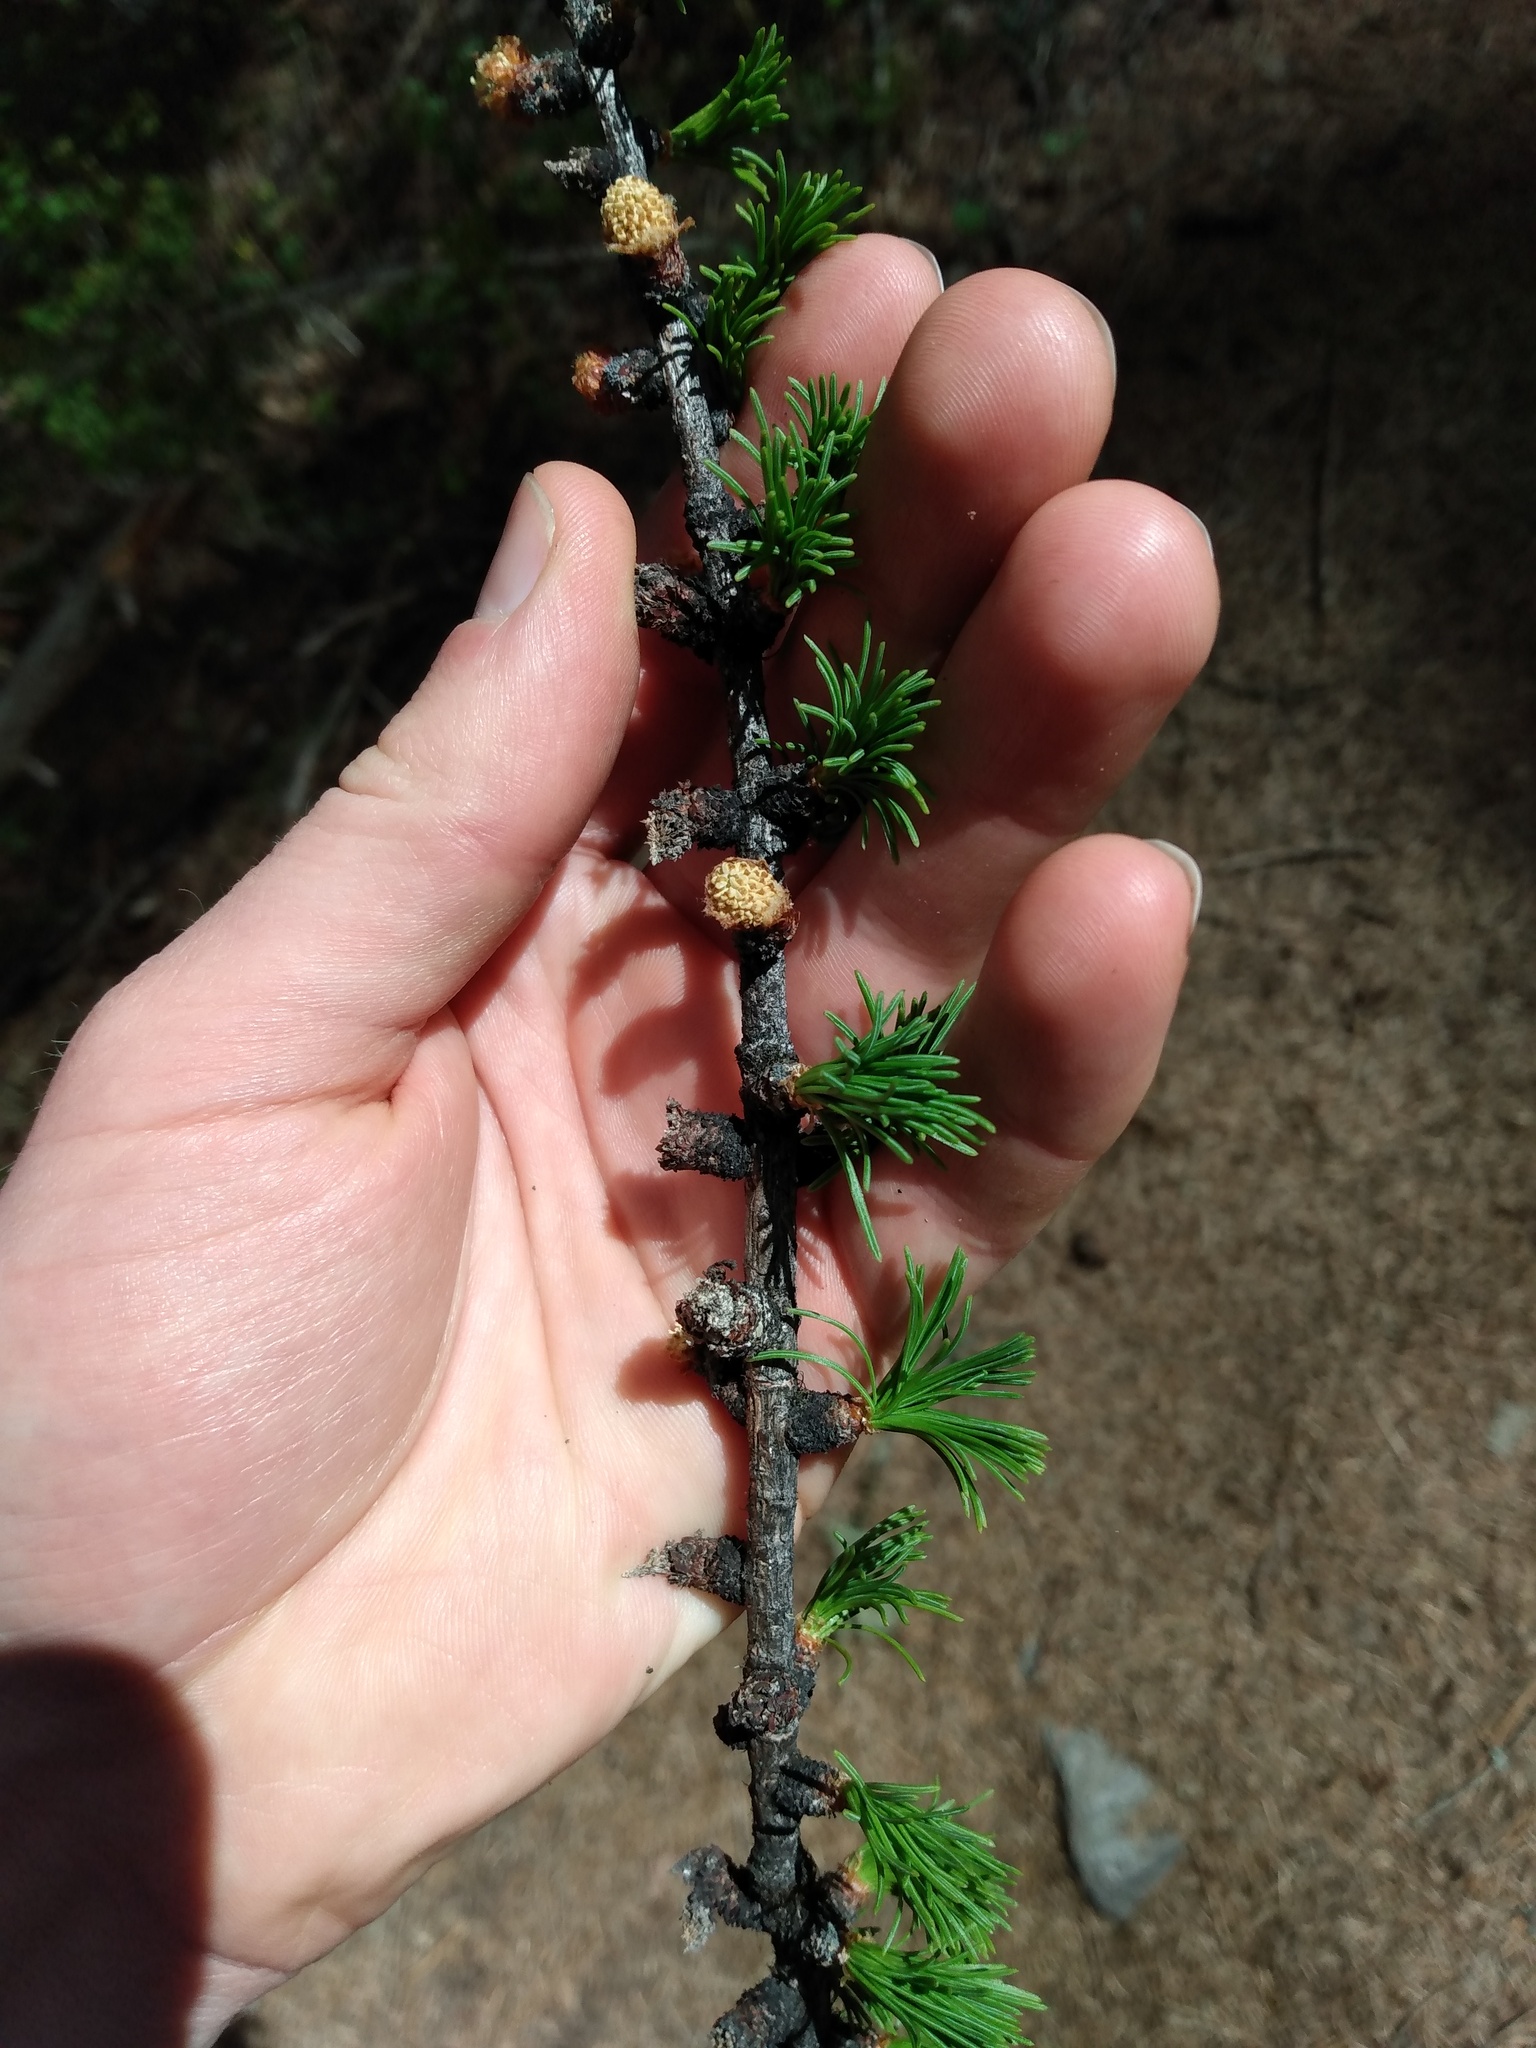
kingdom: Plantae
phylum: Tracheophyta
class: Pinopsida
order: Pinales
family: Pinaceae
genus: Larix
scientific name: Larix occidentalis
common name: Western larch
